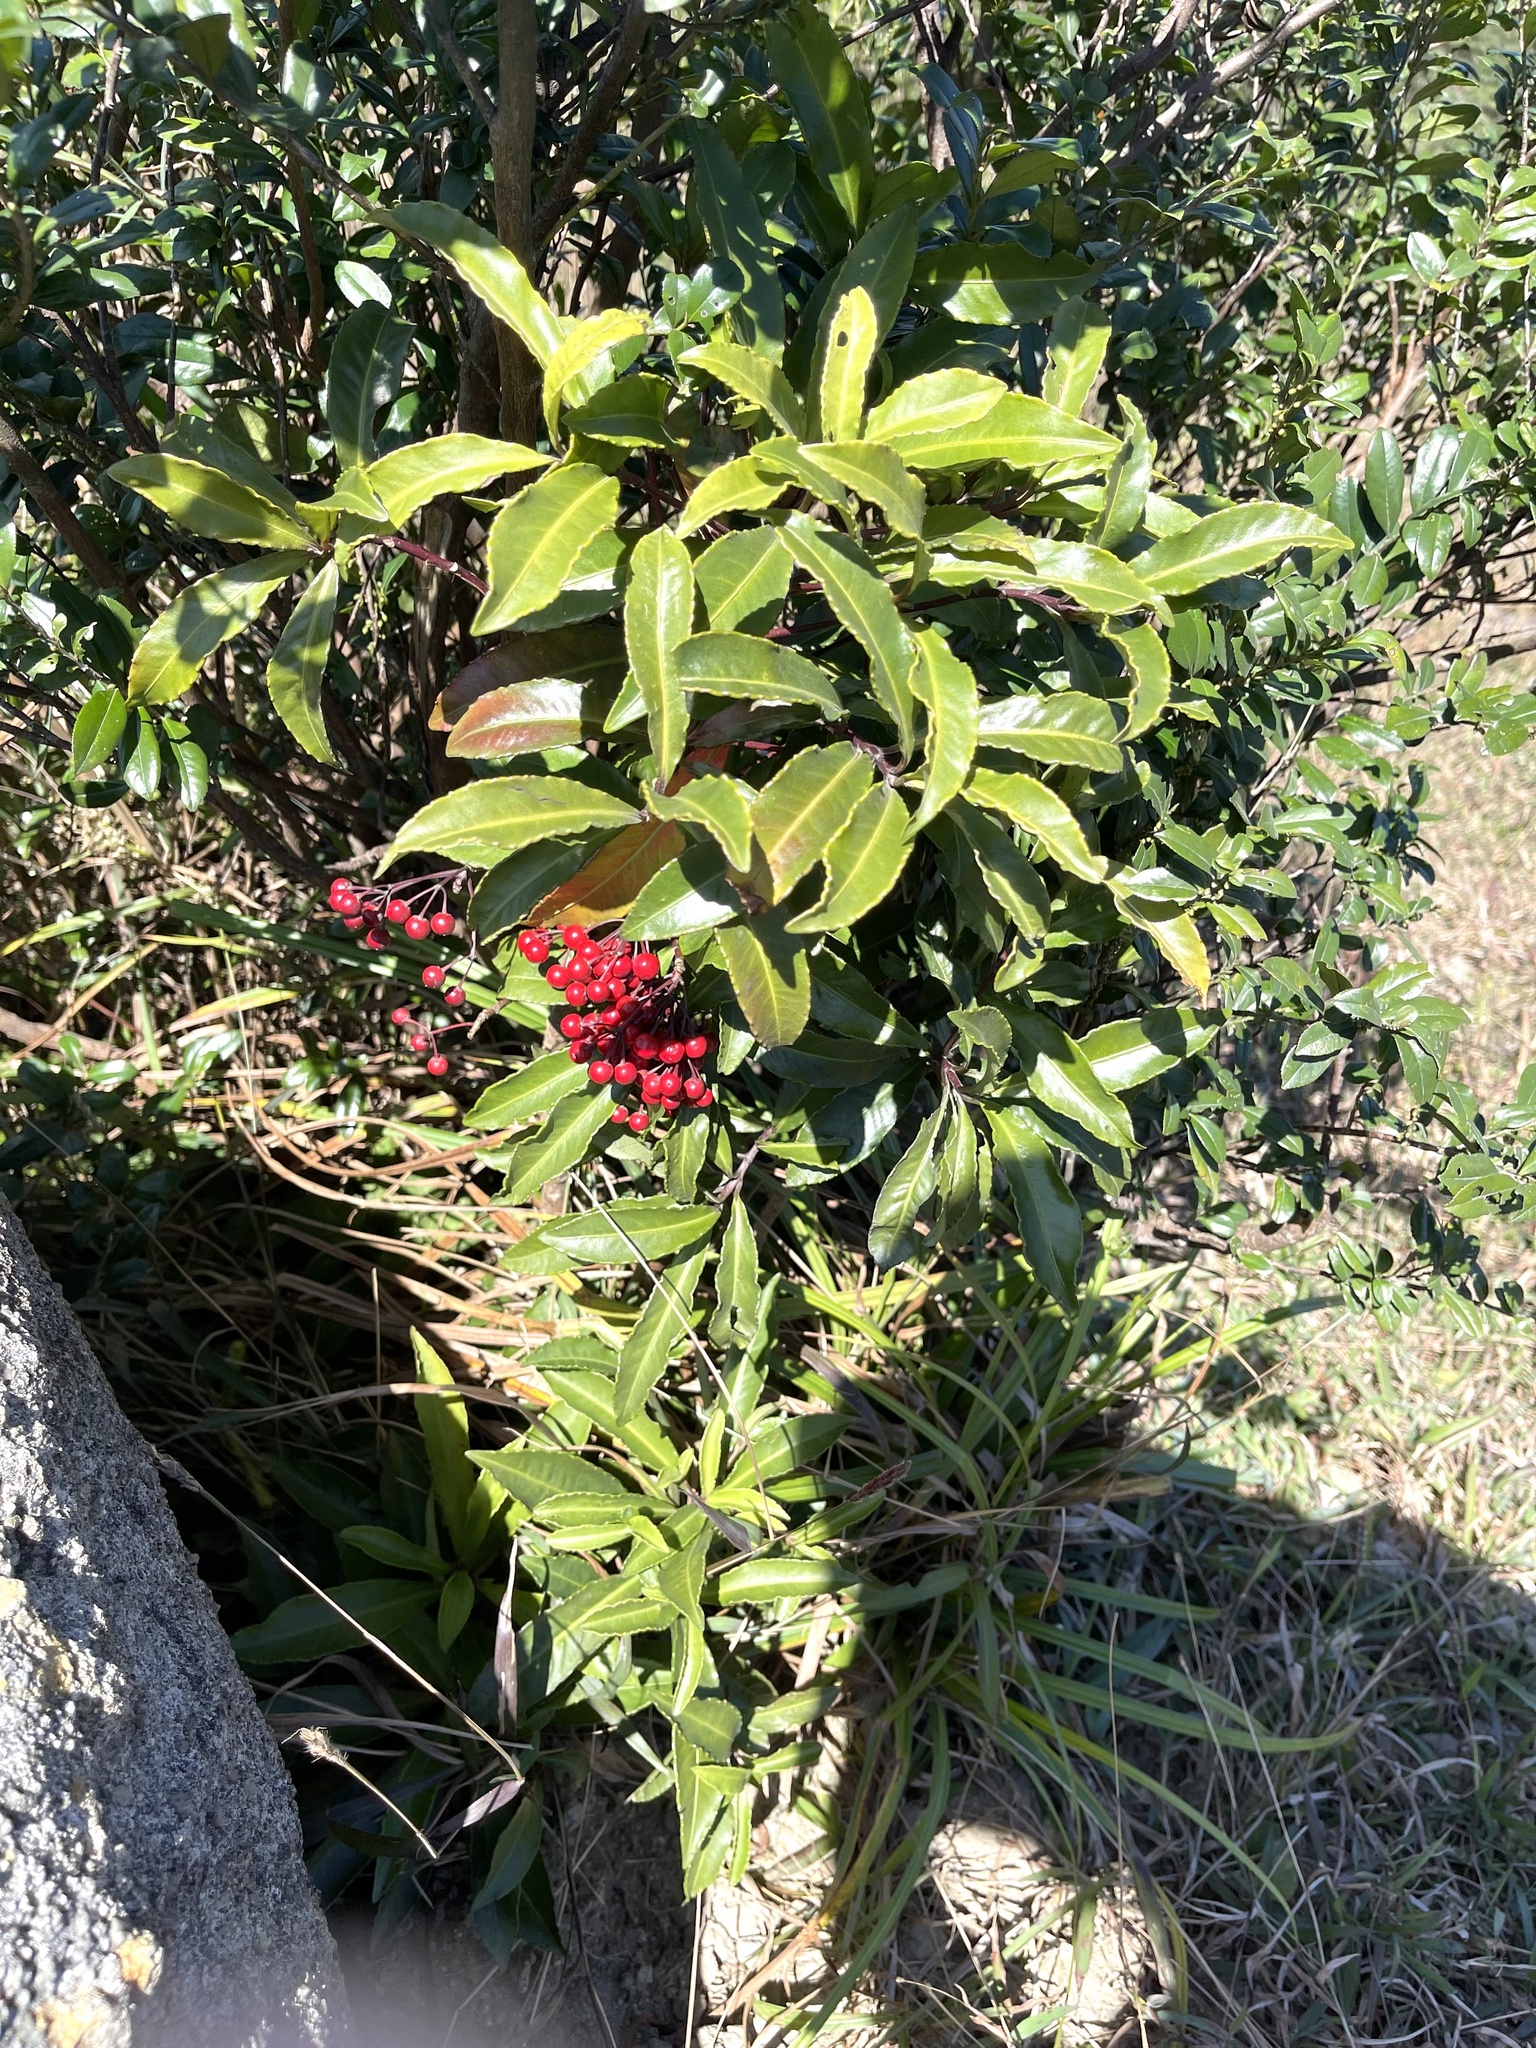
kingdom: Plantae
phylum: Tracheophyta
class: Magnoliopsida
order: Ericales
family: Primulaceae
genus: Ardisia
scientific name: Ardisia crenata
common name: Hen's eyes
